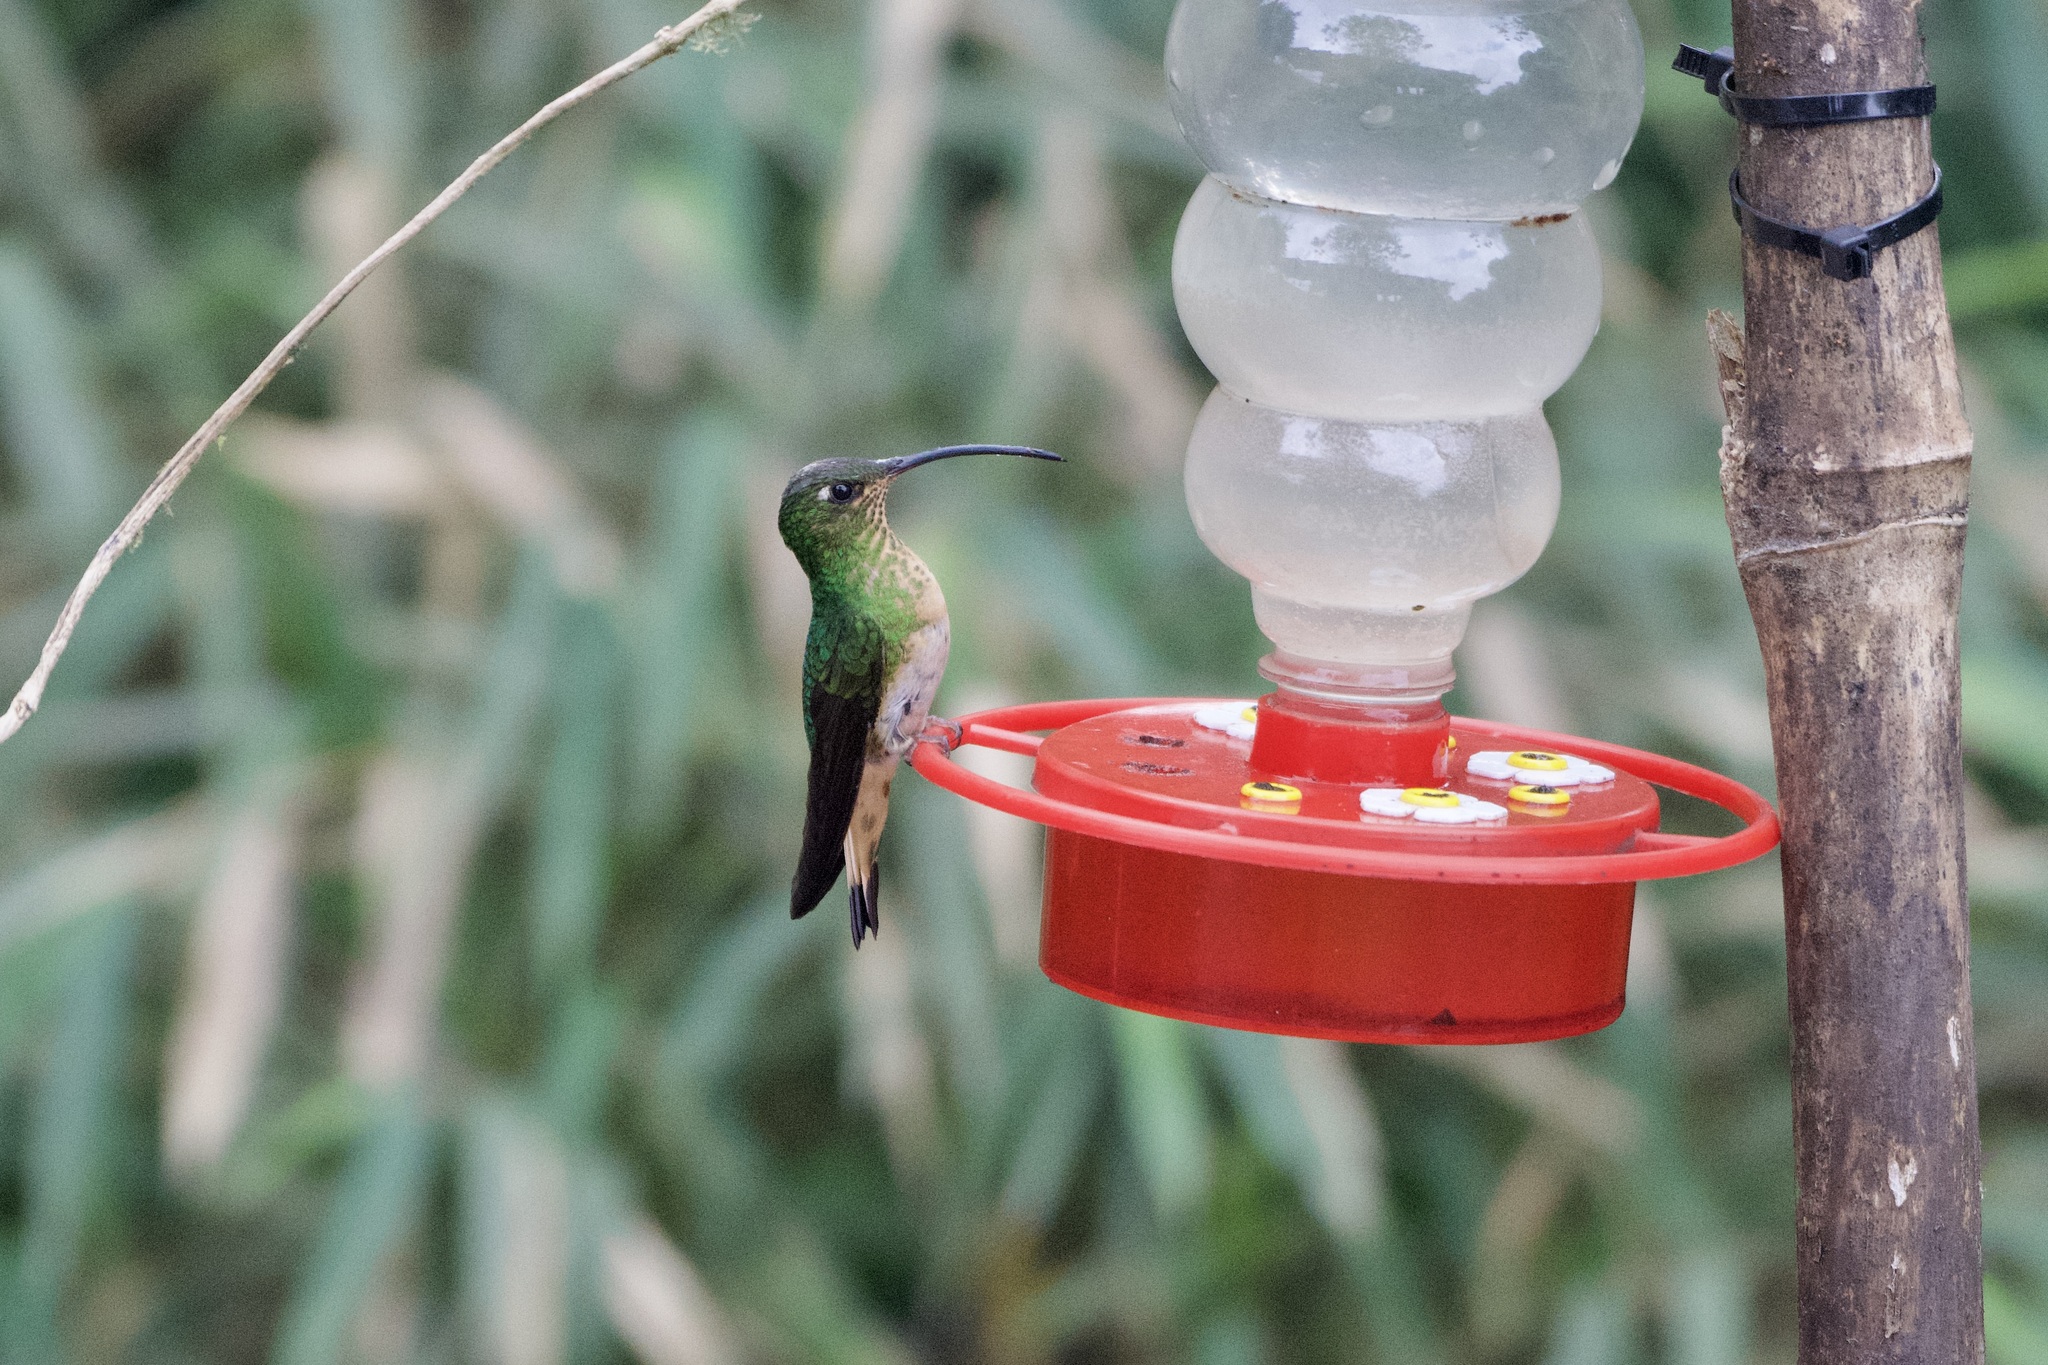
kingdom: Animalia
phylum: Chordata
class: Aves
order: Apodiformes
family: Trochilidae
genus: Lafresnaya
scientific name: Lafresnaya lafresnayi
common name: Mountain velvetbreast
